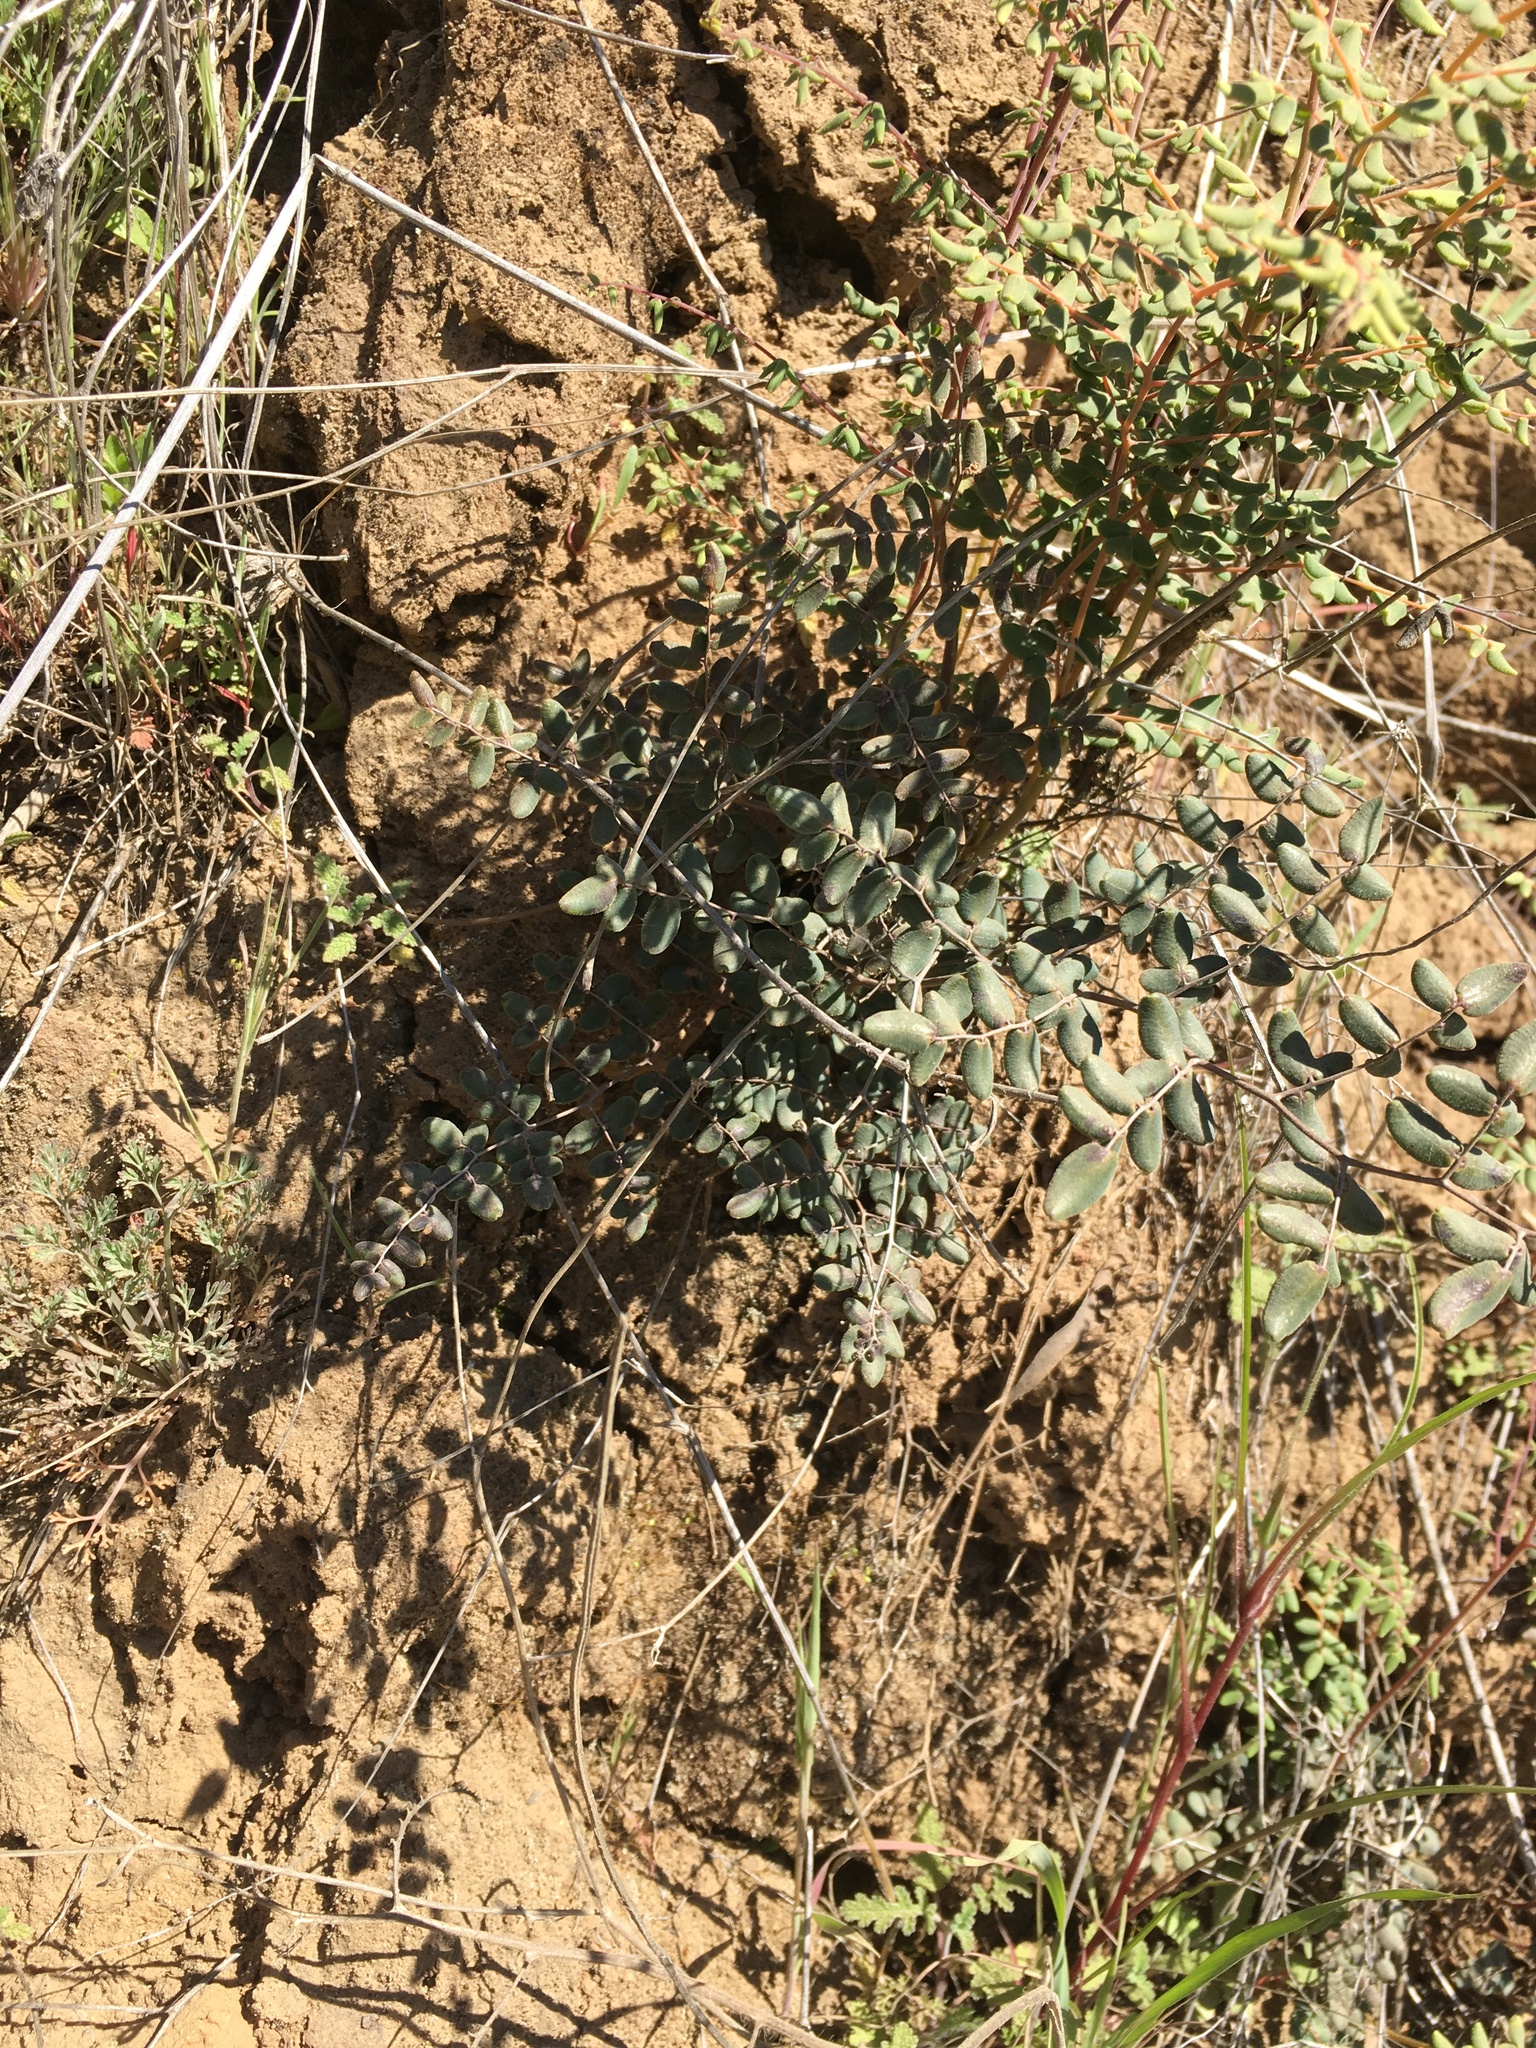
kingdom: Plantae
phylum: Tracheophyta
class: Polypodiopsida
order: Polypodiales
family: Pteridaceae
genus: Pellaea
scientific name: Pellaea andromedifolia
